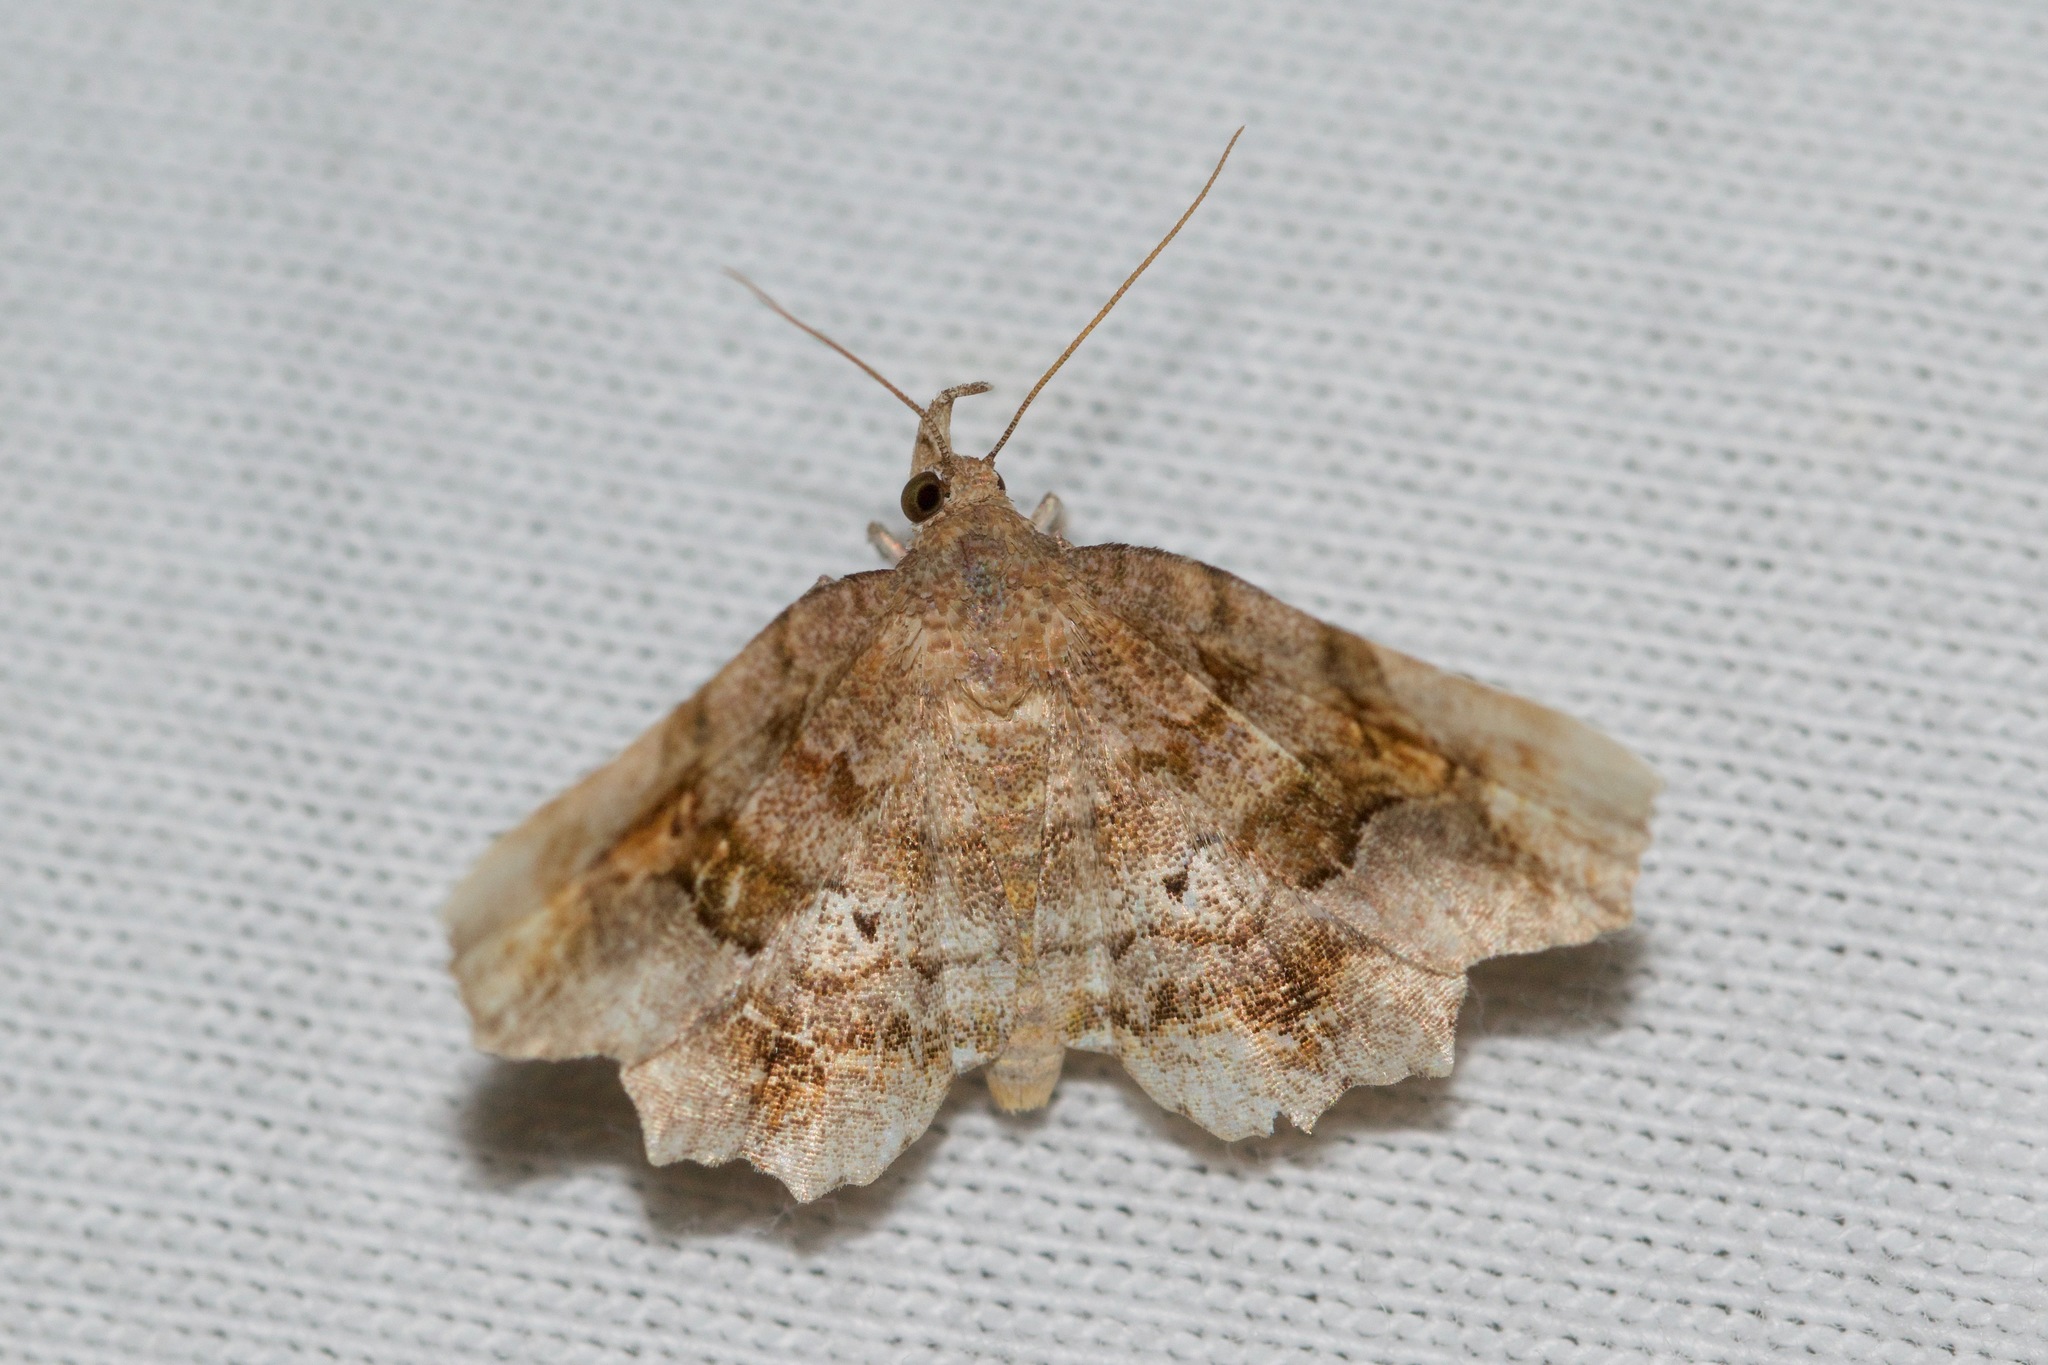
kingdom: Animalia
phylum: Arthropoda
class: Insecta
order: Lepidoptera
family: Erebidae
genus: Pangrapta
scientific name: Pangrapta decoralis
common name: Decorated owlet
